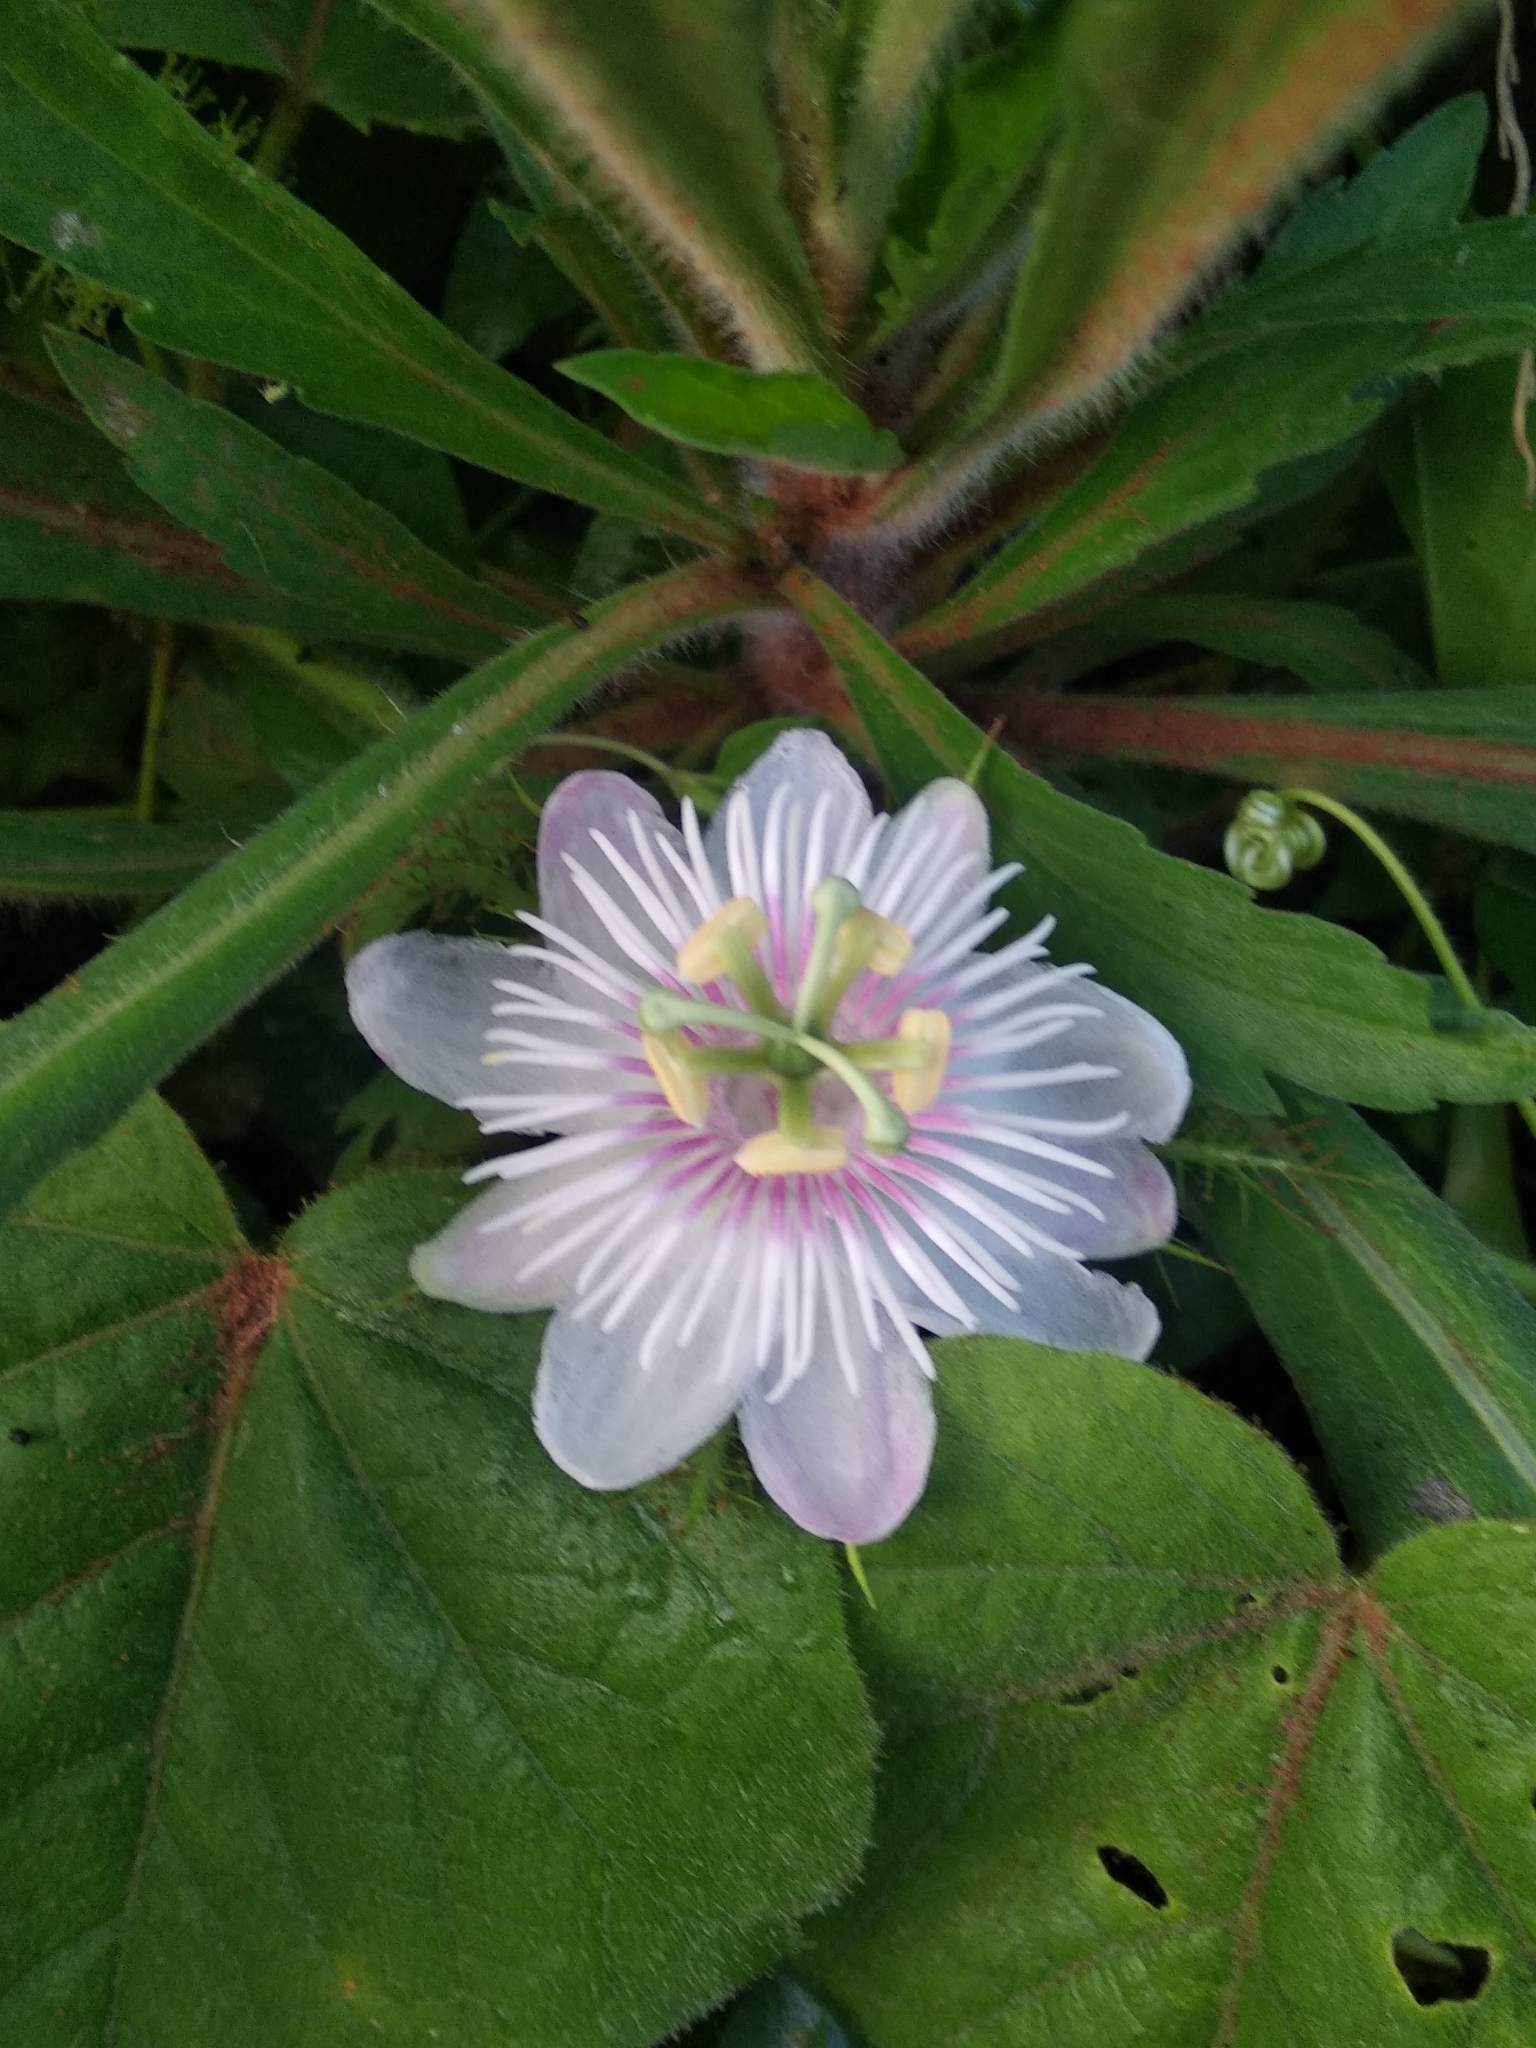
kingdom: Plantae
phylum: Tracheophyta
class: Magnoliopsida
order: Malpighiales
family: Passifloraceae
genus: Passiflora
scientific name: Passiflora foetida
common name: Fetid passionflower
